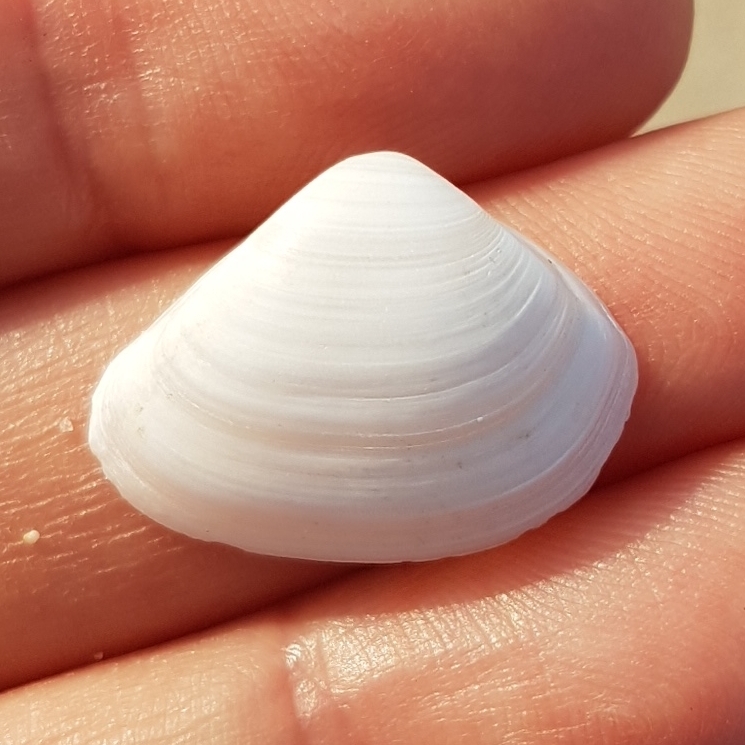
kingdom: Animalia
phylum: Mollusca
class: Bivalvia
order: Venerida
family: Mactridae
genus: Spisula
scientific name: Spisula subtruncata
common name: Cut trough shell
